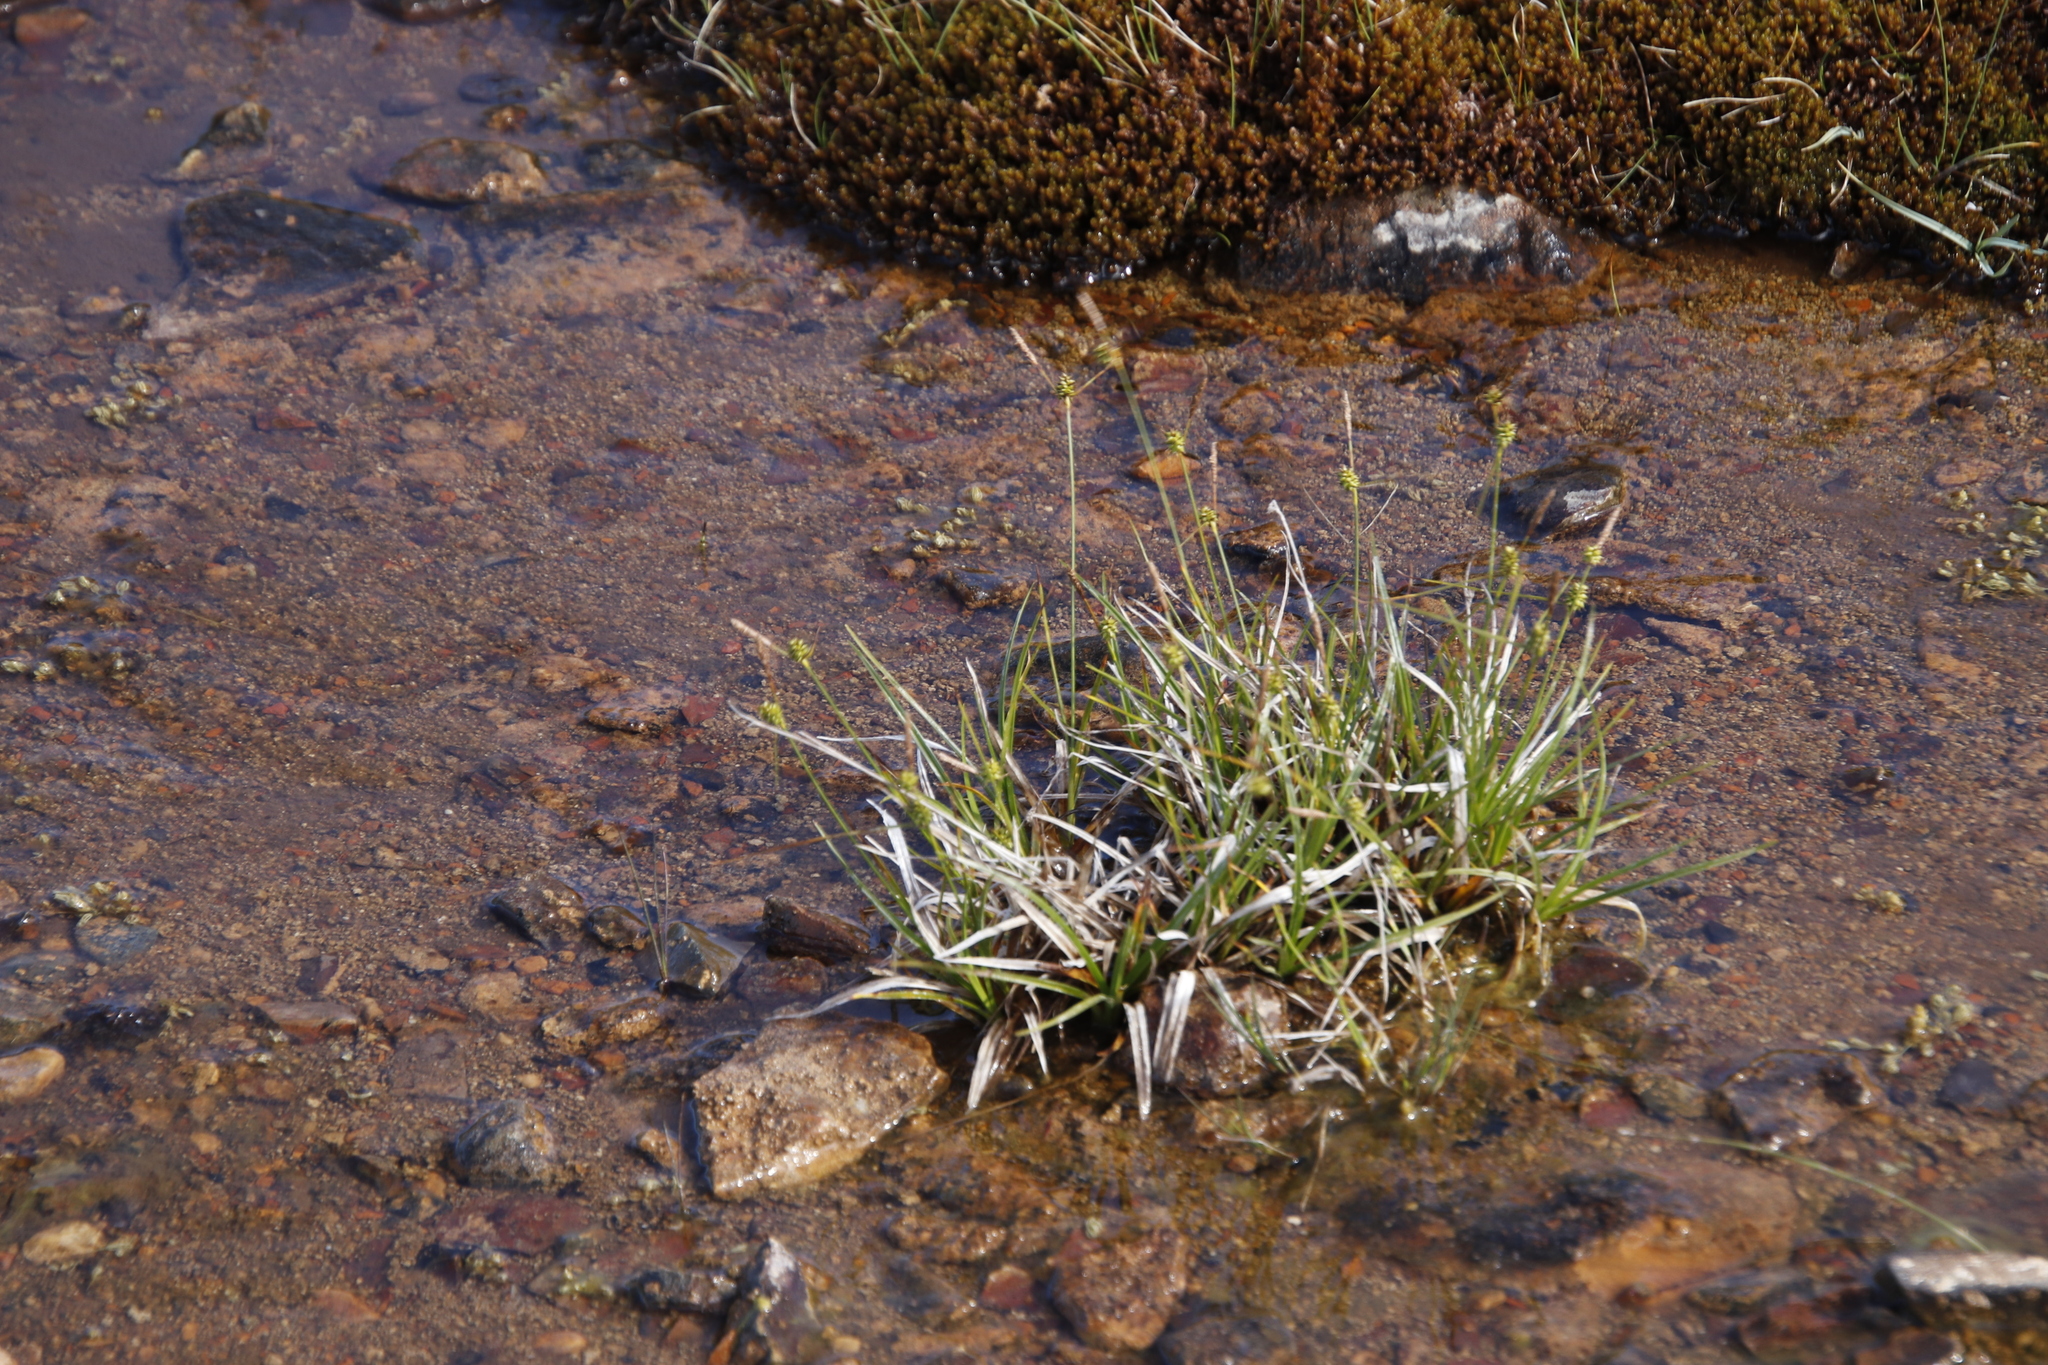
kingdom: Plantae
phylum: Tracheophyta
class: Liliopsida
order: Poales
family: Cyperaceae
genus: Carex
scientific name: Carex lepidocarpa
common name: Long-stalked yellow-sedge
